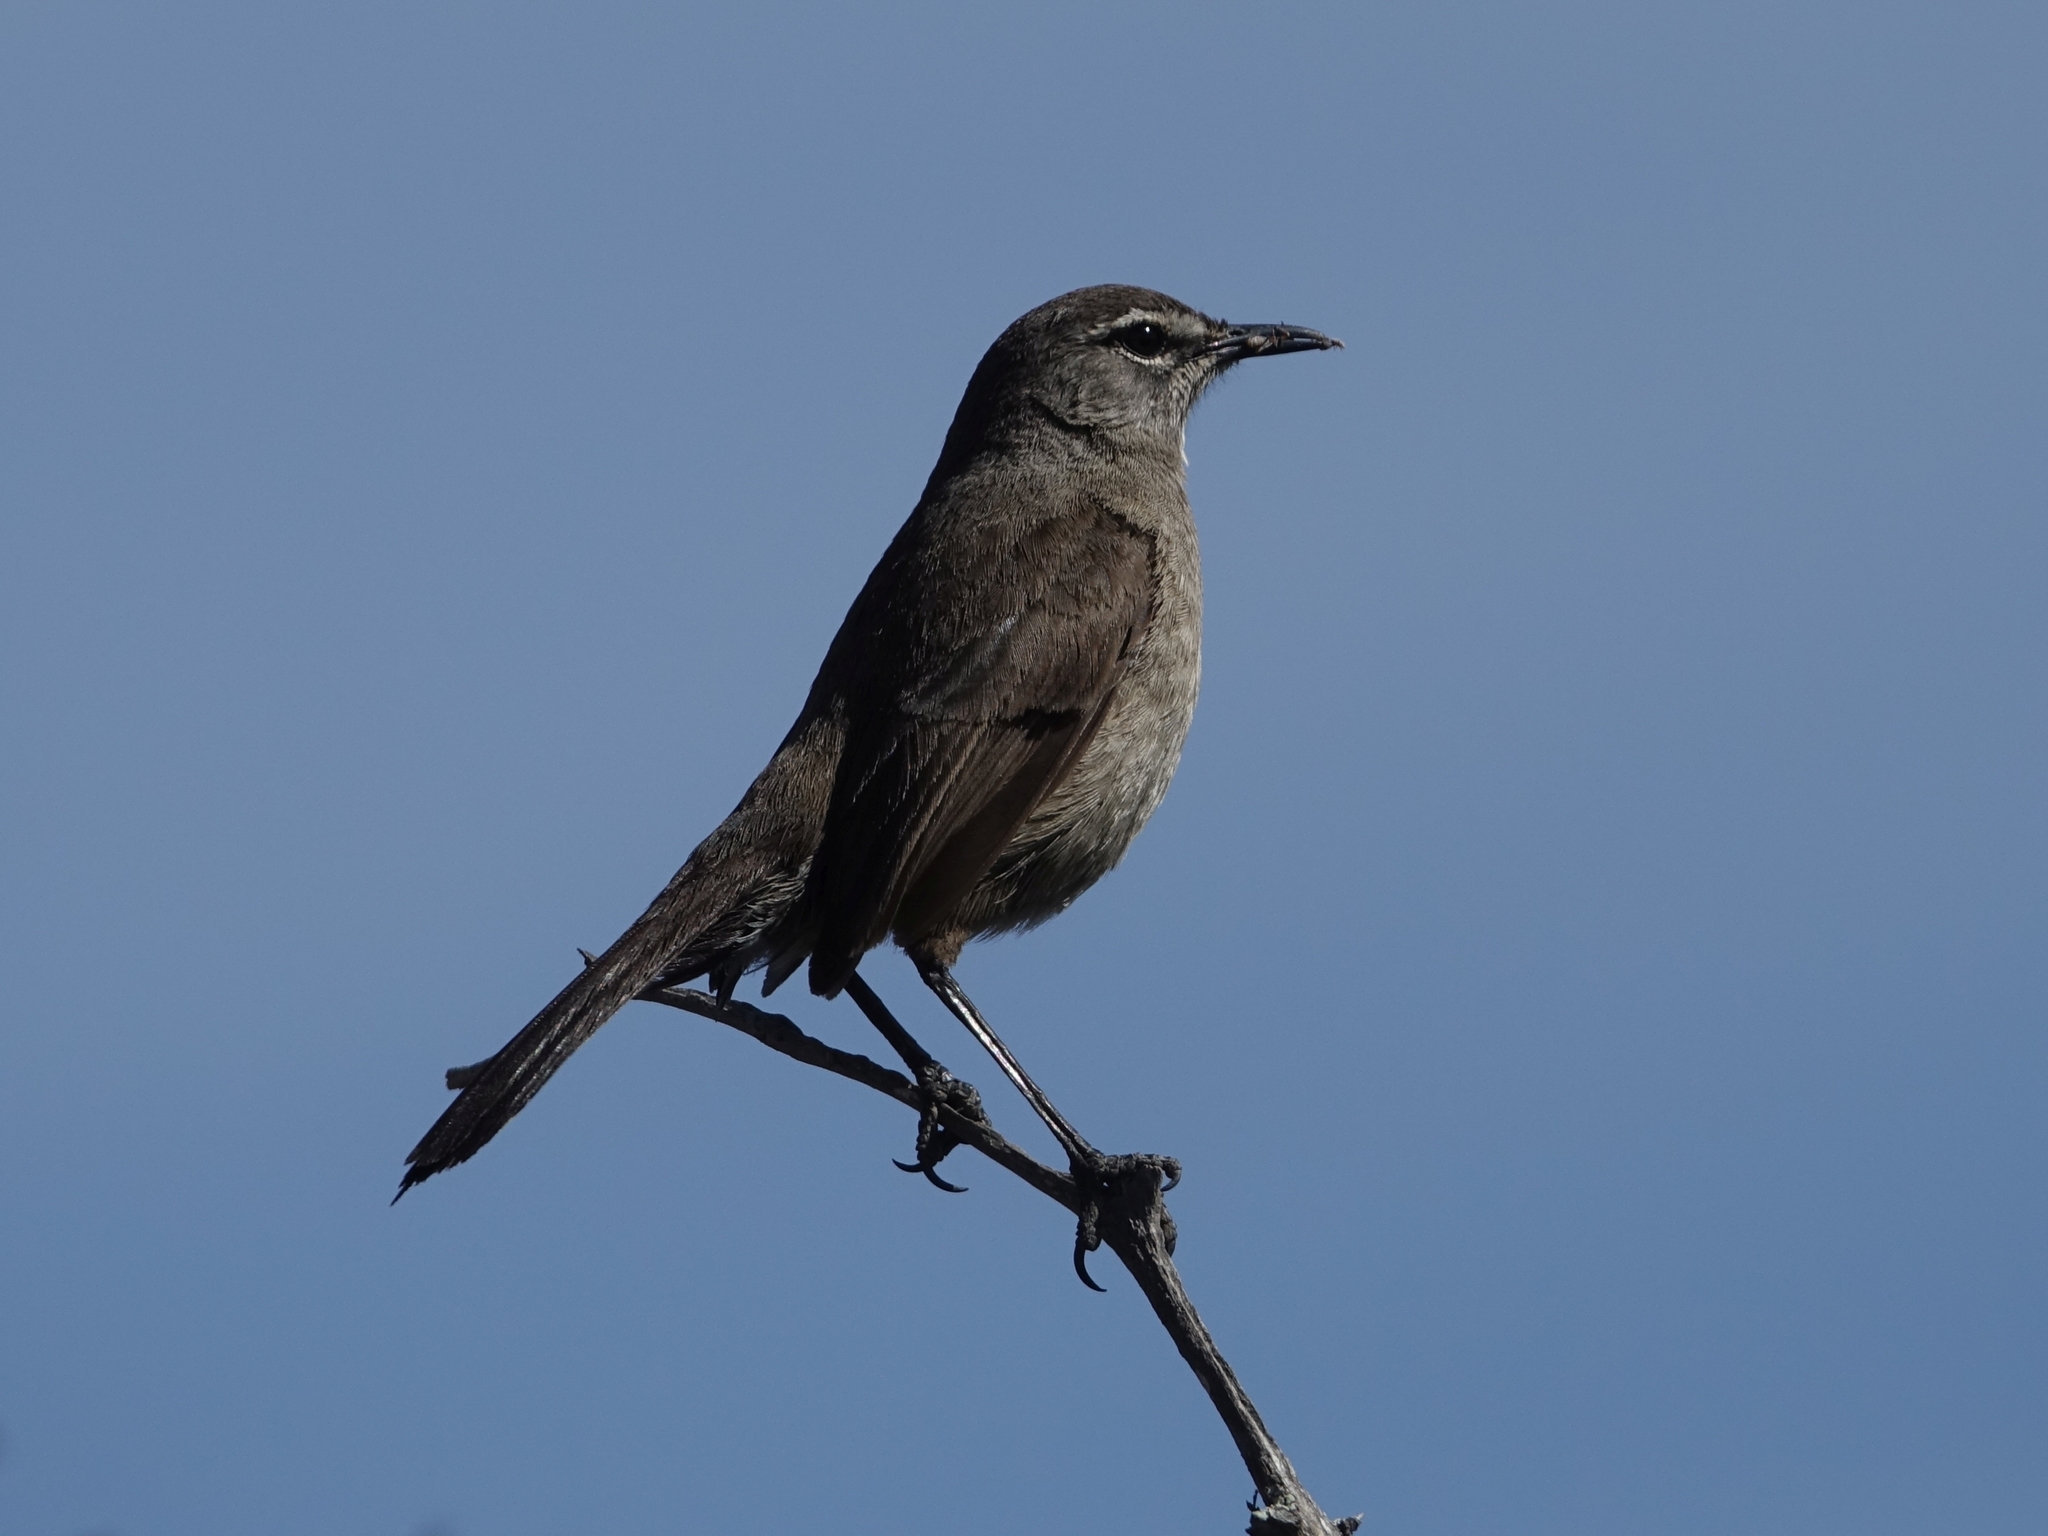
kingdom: Animalia
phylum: Chordata
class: Aves
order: Passeriformes
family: Muscicapidae
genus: Erythropygia
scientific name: Erythropygia coryphoeus
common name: Karoo scrub robin
